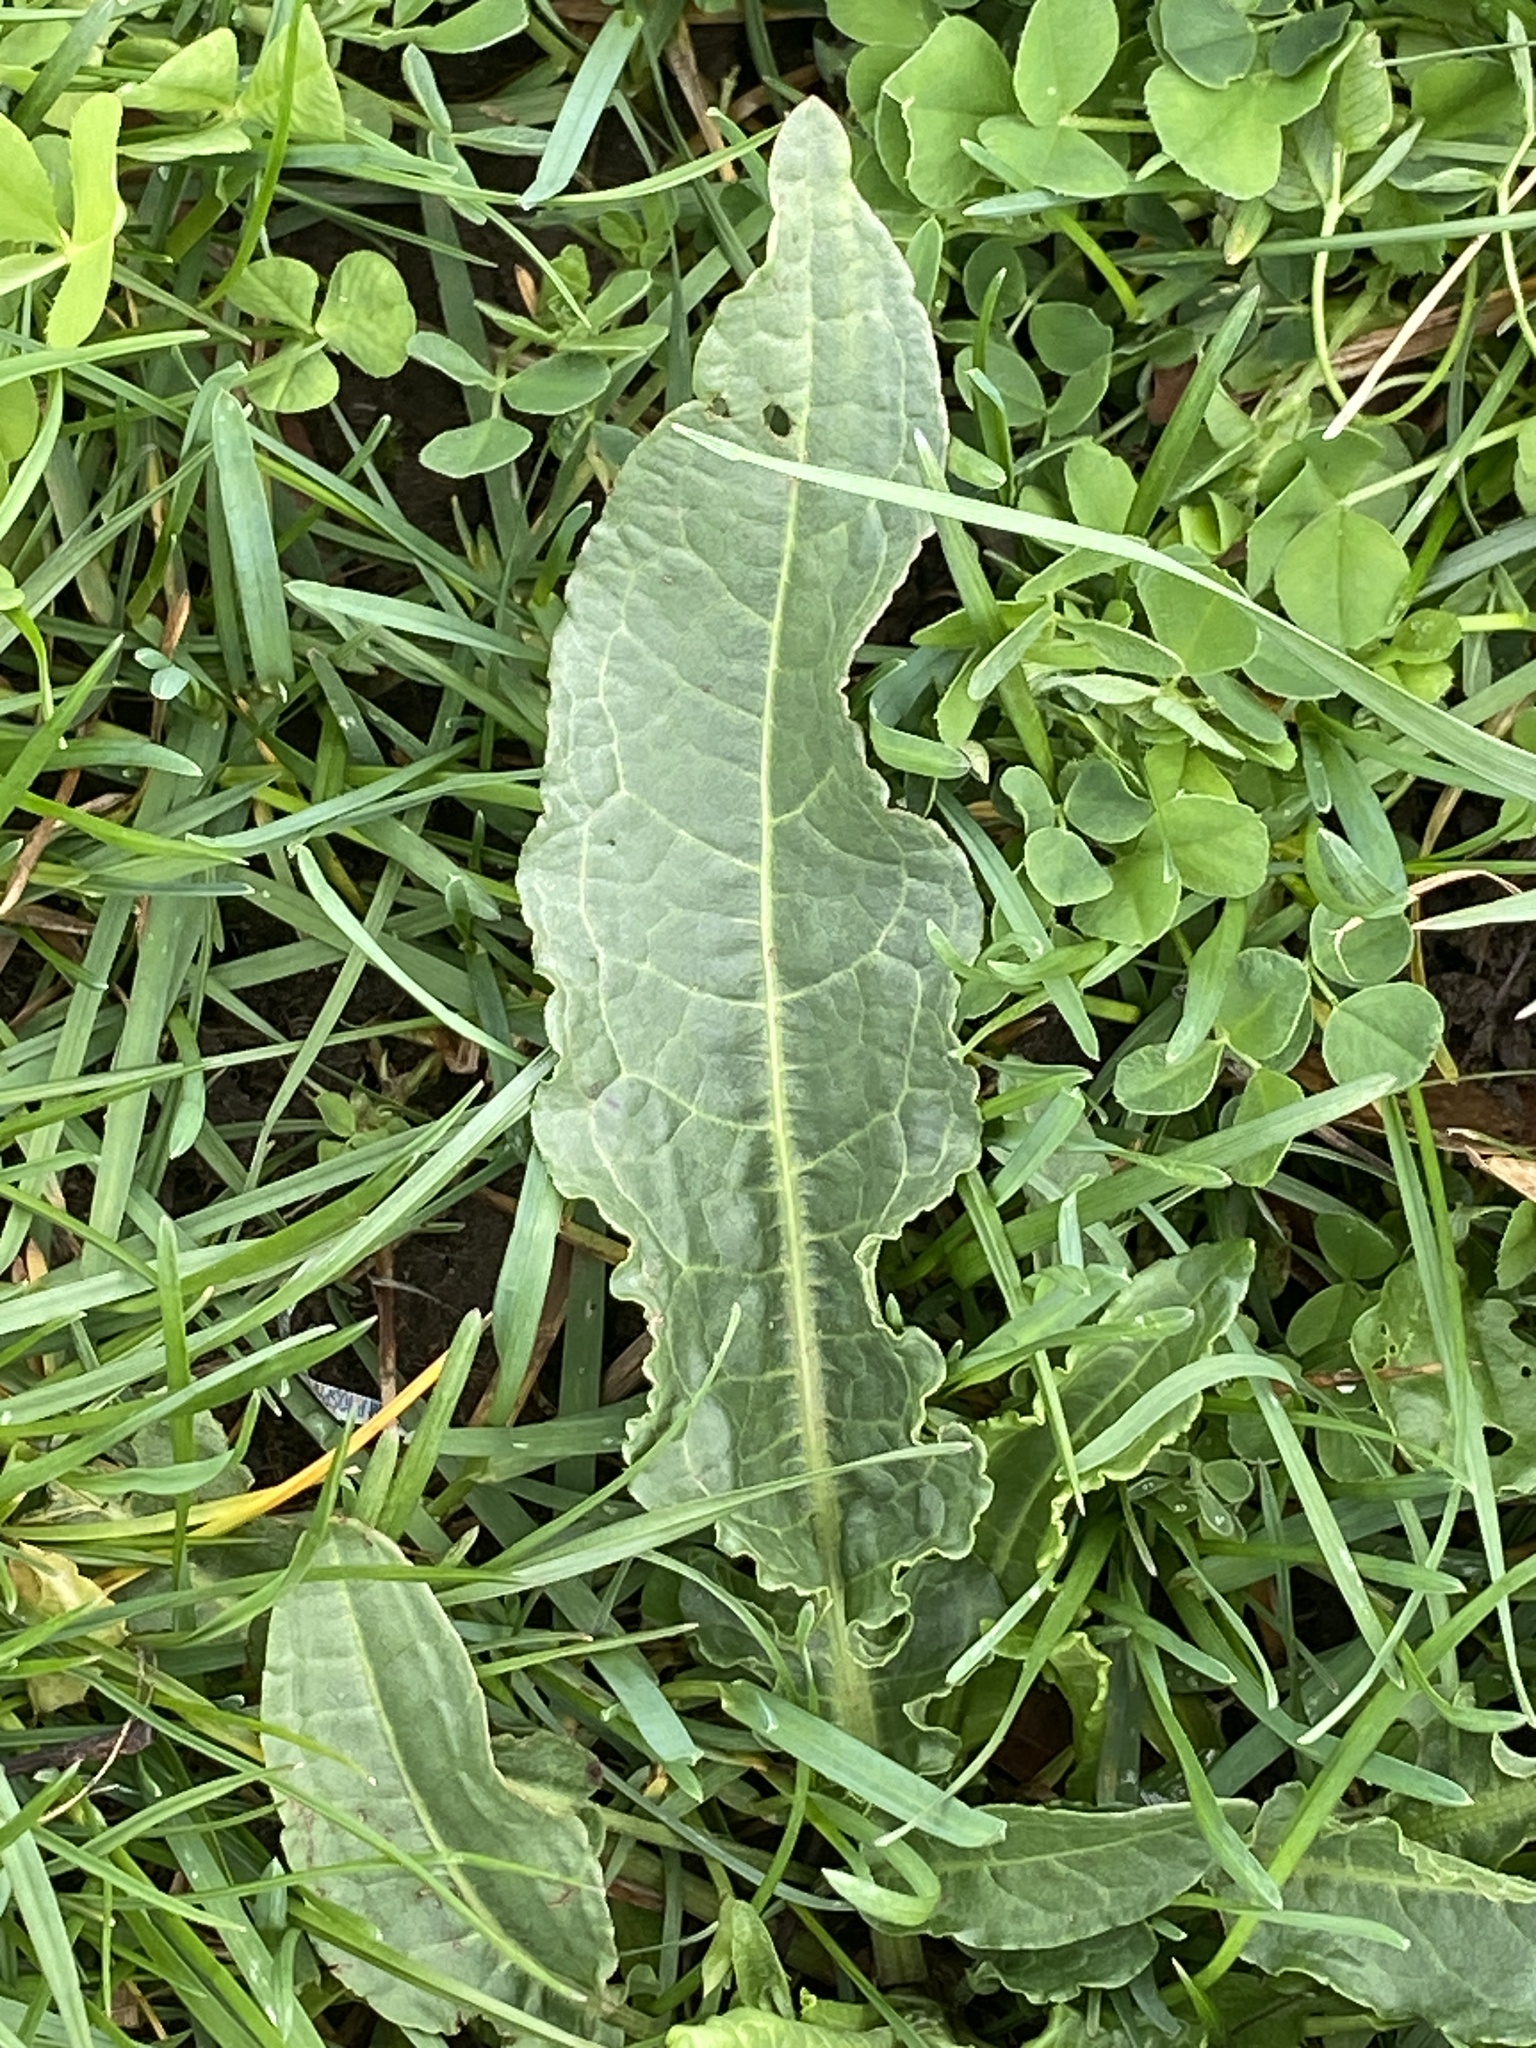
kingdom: Plantae
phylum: Tracheophyta
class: Magnoliopsida
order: Caryophyllales
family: Polygonaceae
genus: Rumex
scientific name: Rumex crispus
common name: Curled dock
